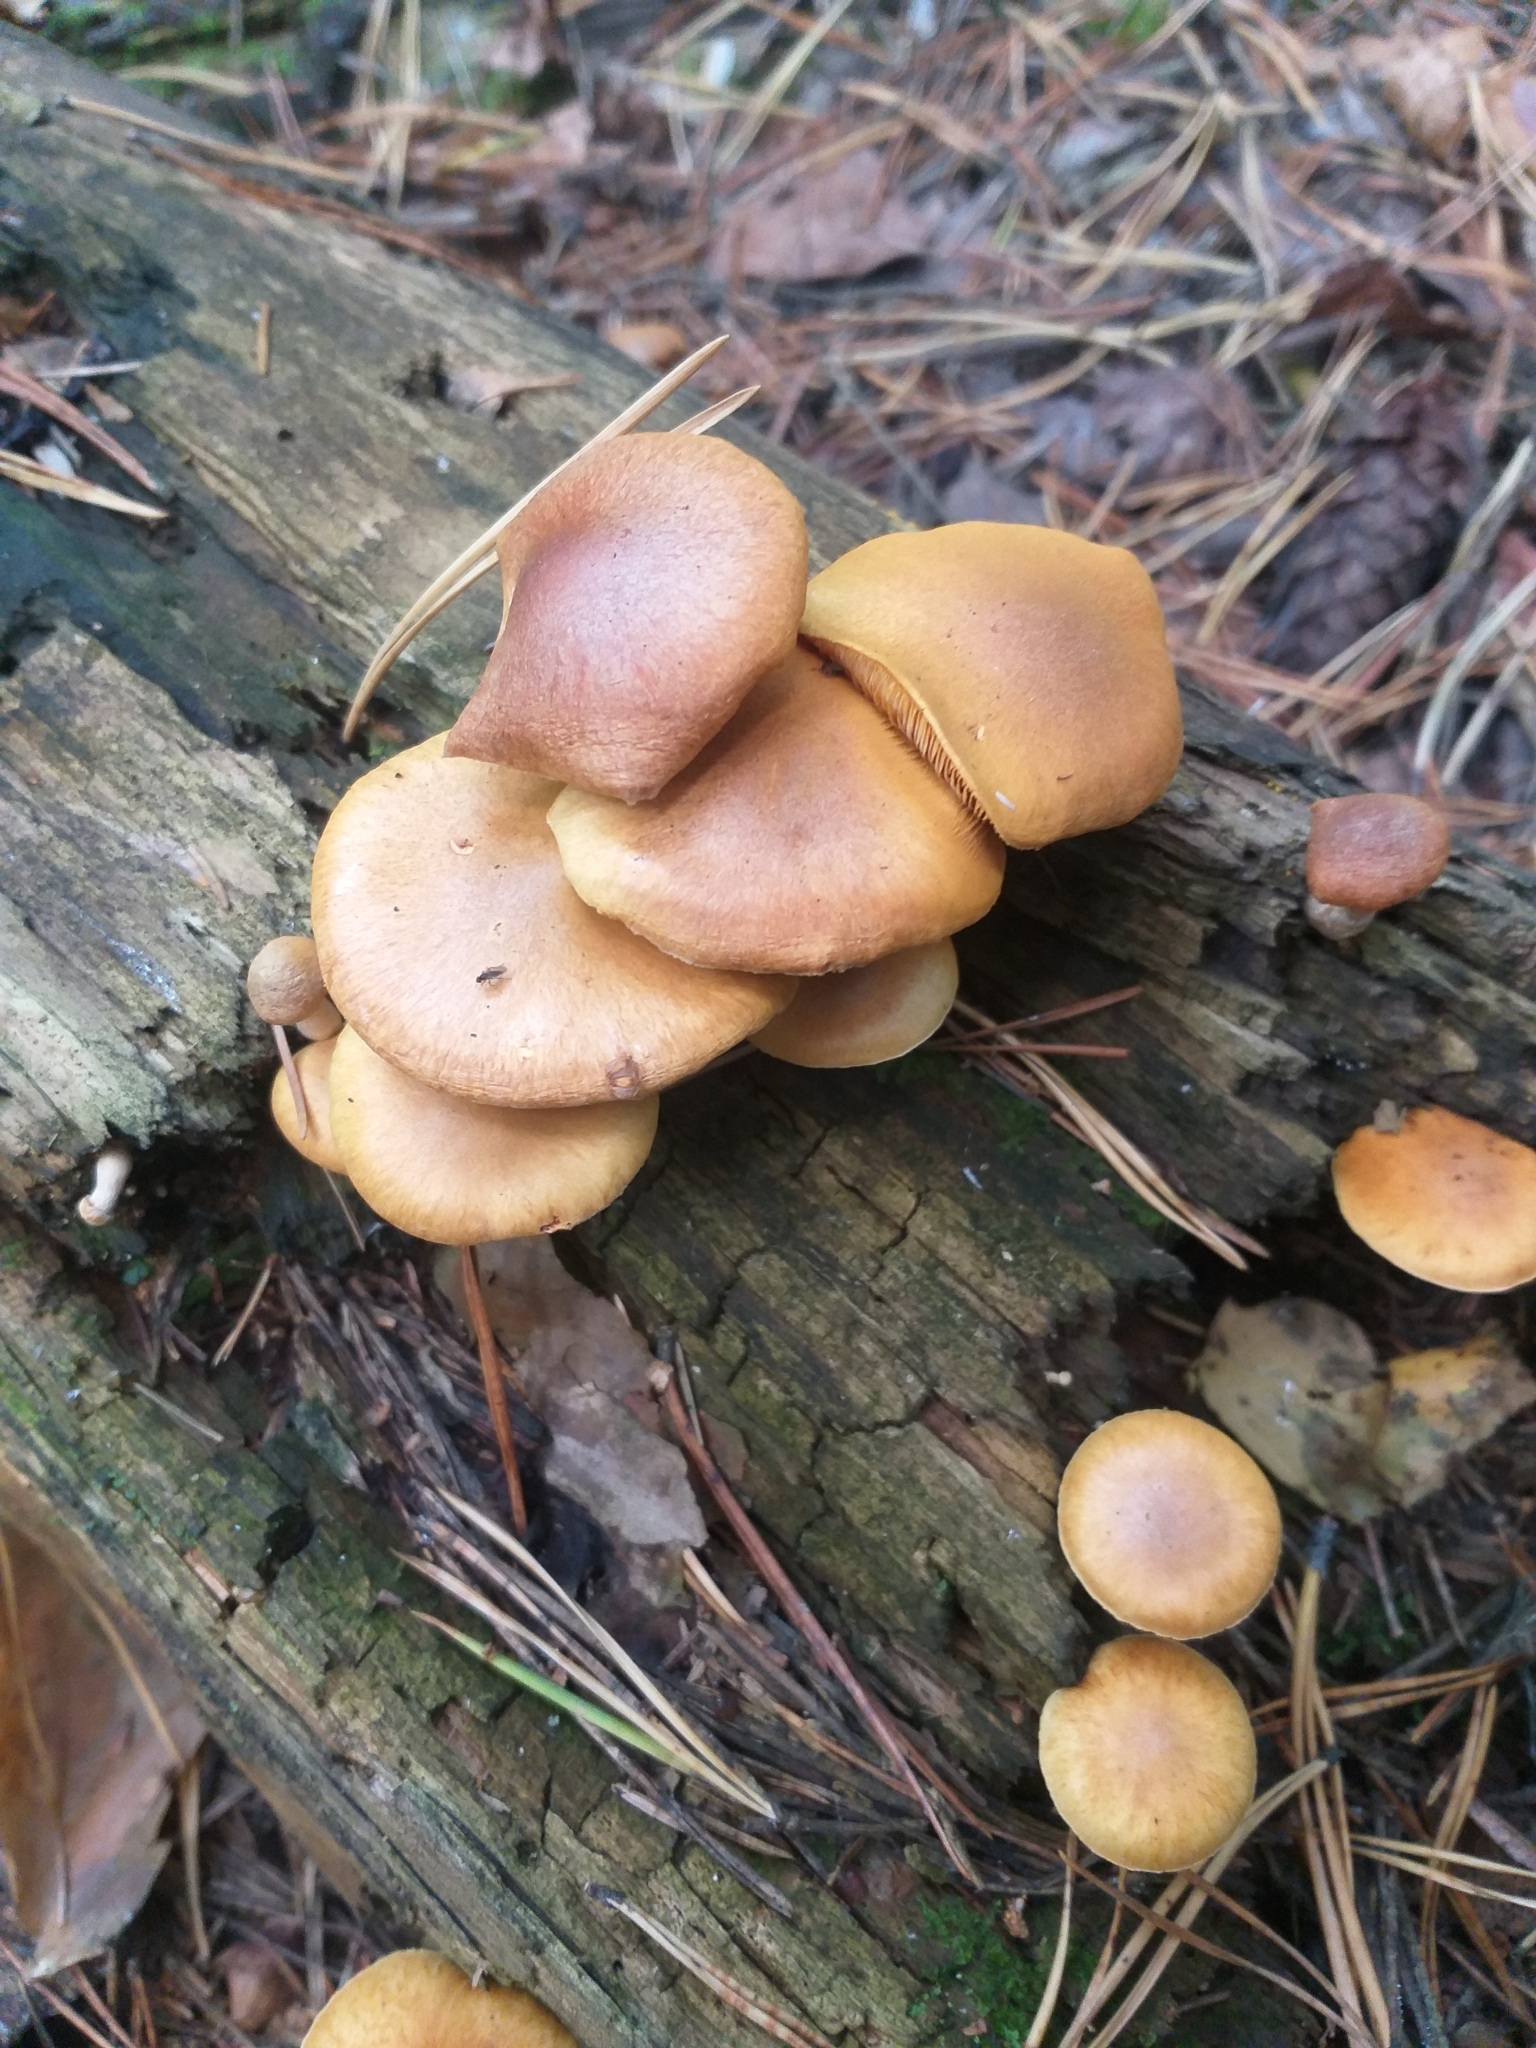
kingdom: Fungi
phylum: Basidiomycota
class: Agaricomycetes
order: Agaricales
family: Hymenogastraceae
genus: Gymnopilus
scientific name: Gymnopilus penetrans
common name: Common rustgill
